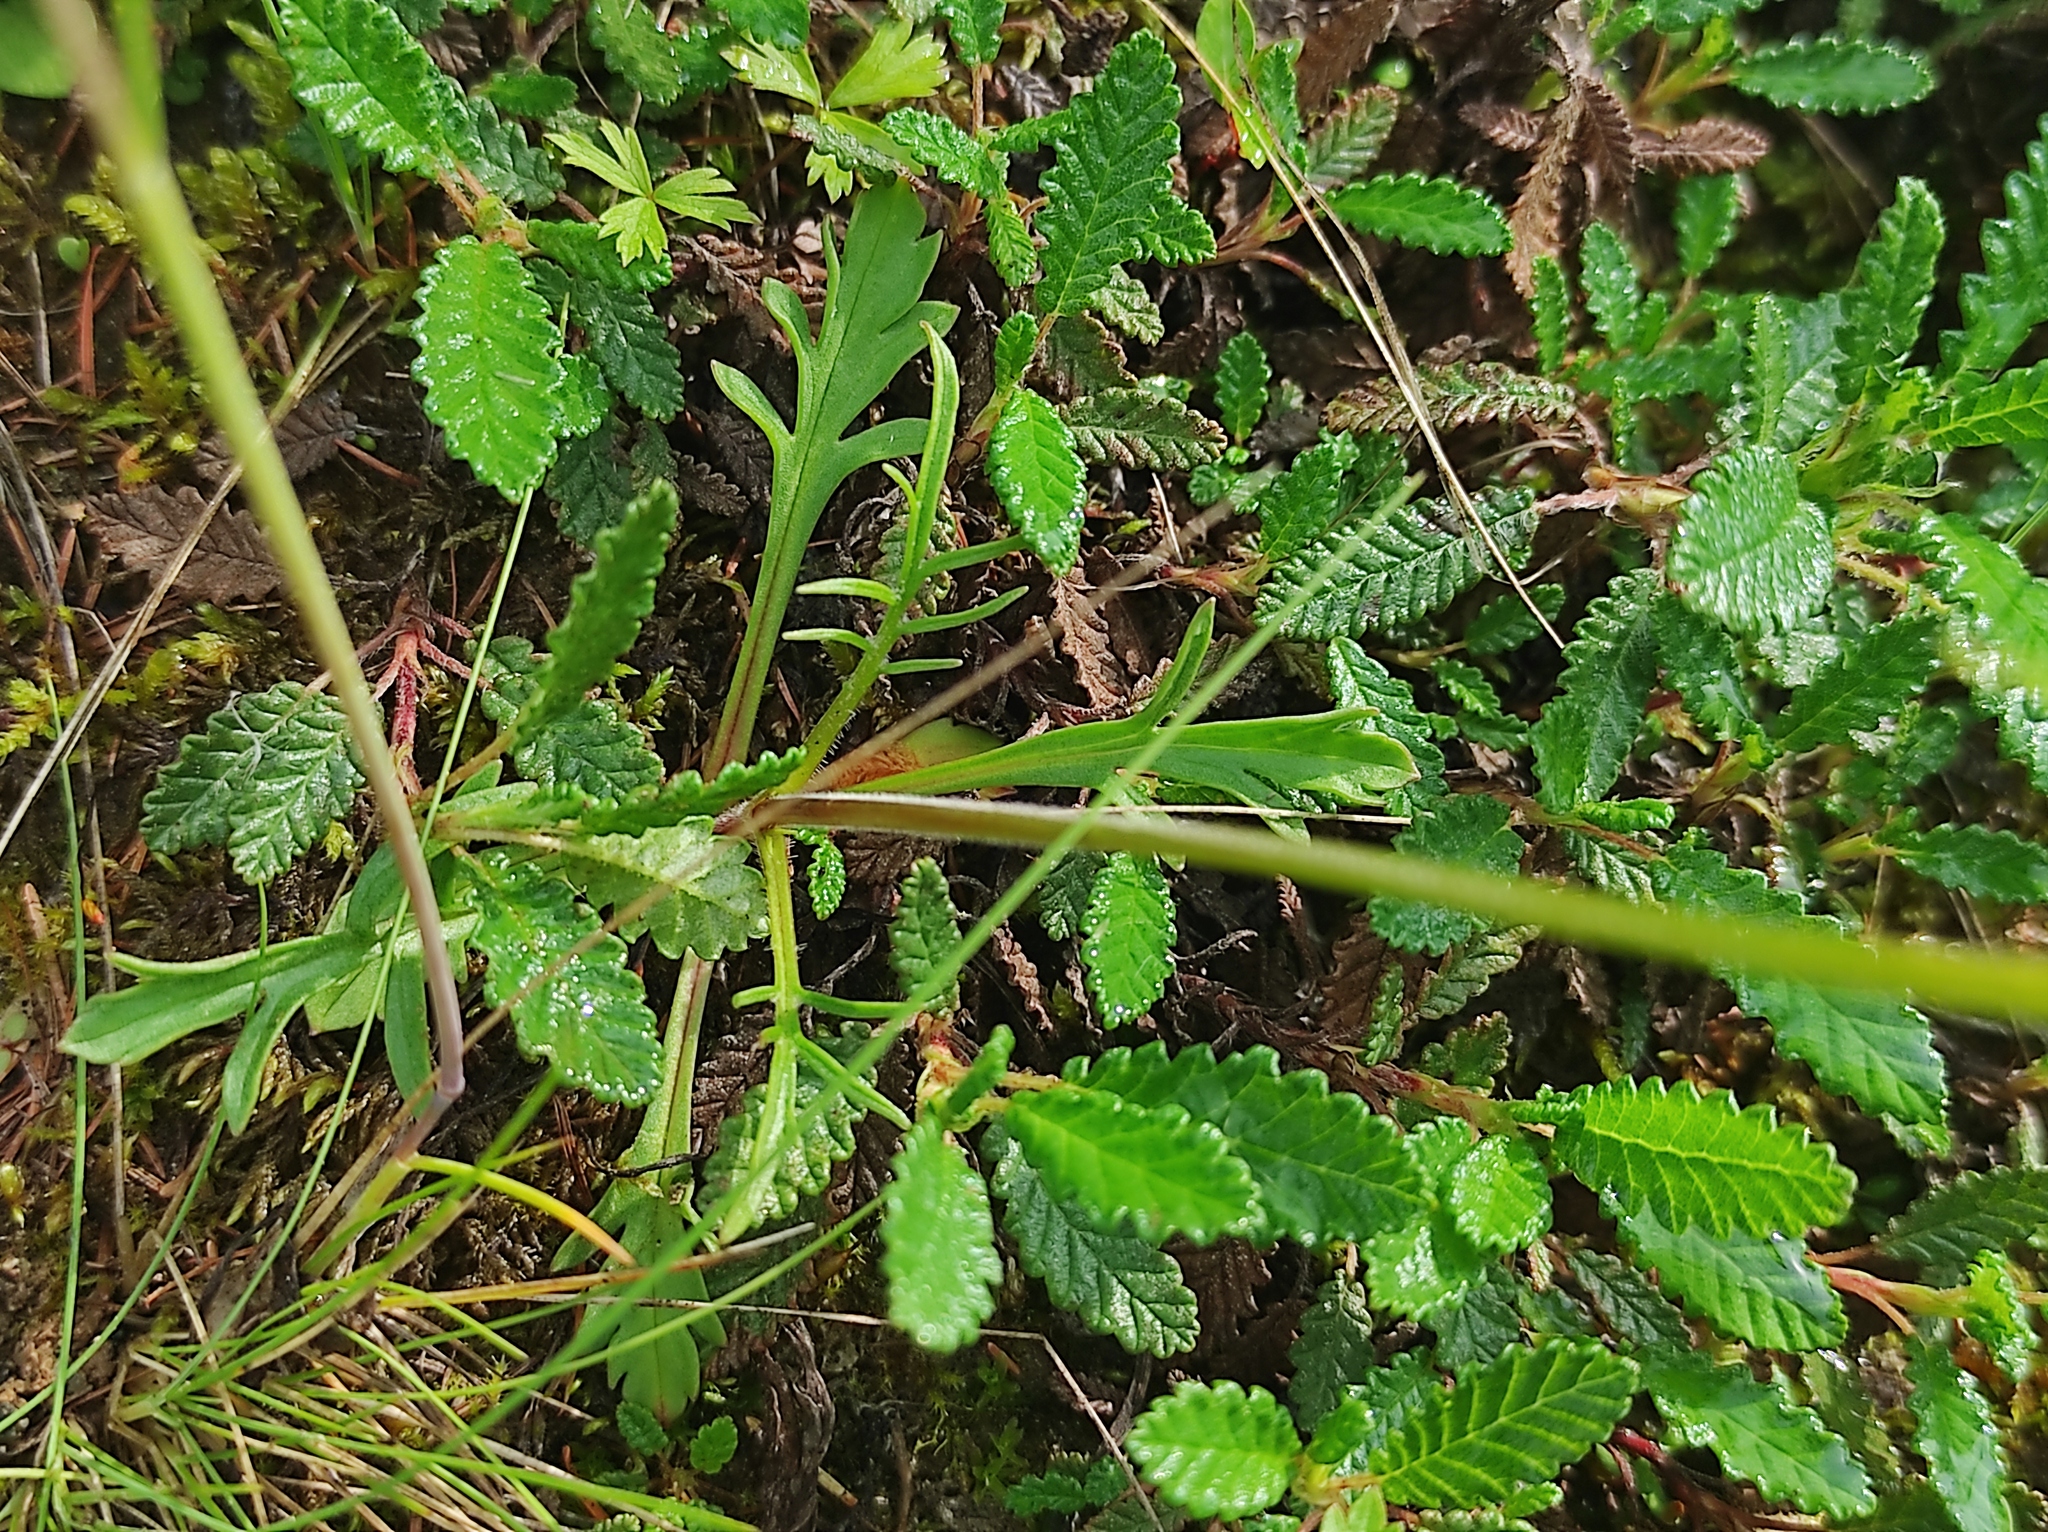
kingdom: Plantae
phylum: Tracheophyta
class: Magnoliopsida
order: Dipsacales
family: Caprifoliaceae
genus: Patrinia
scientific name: Patrinia sibirica
